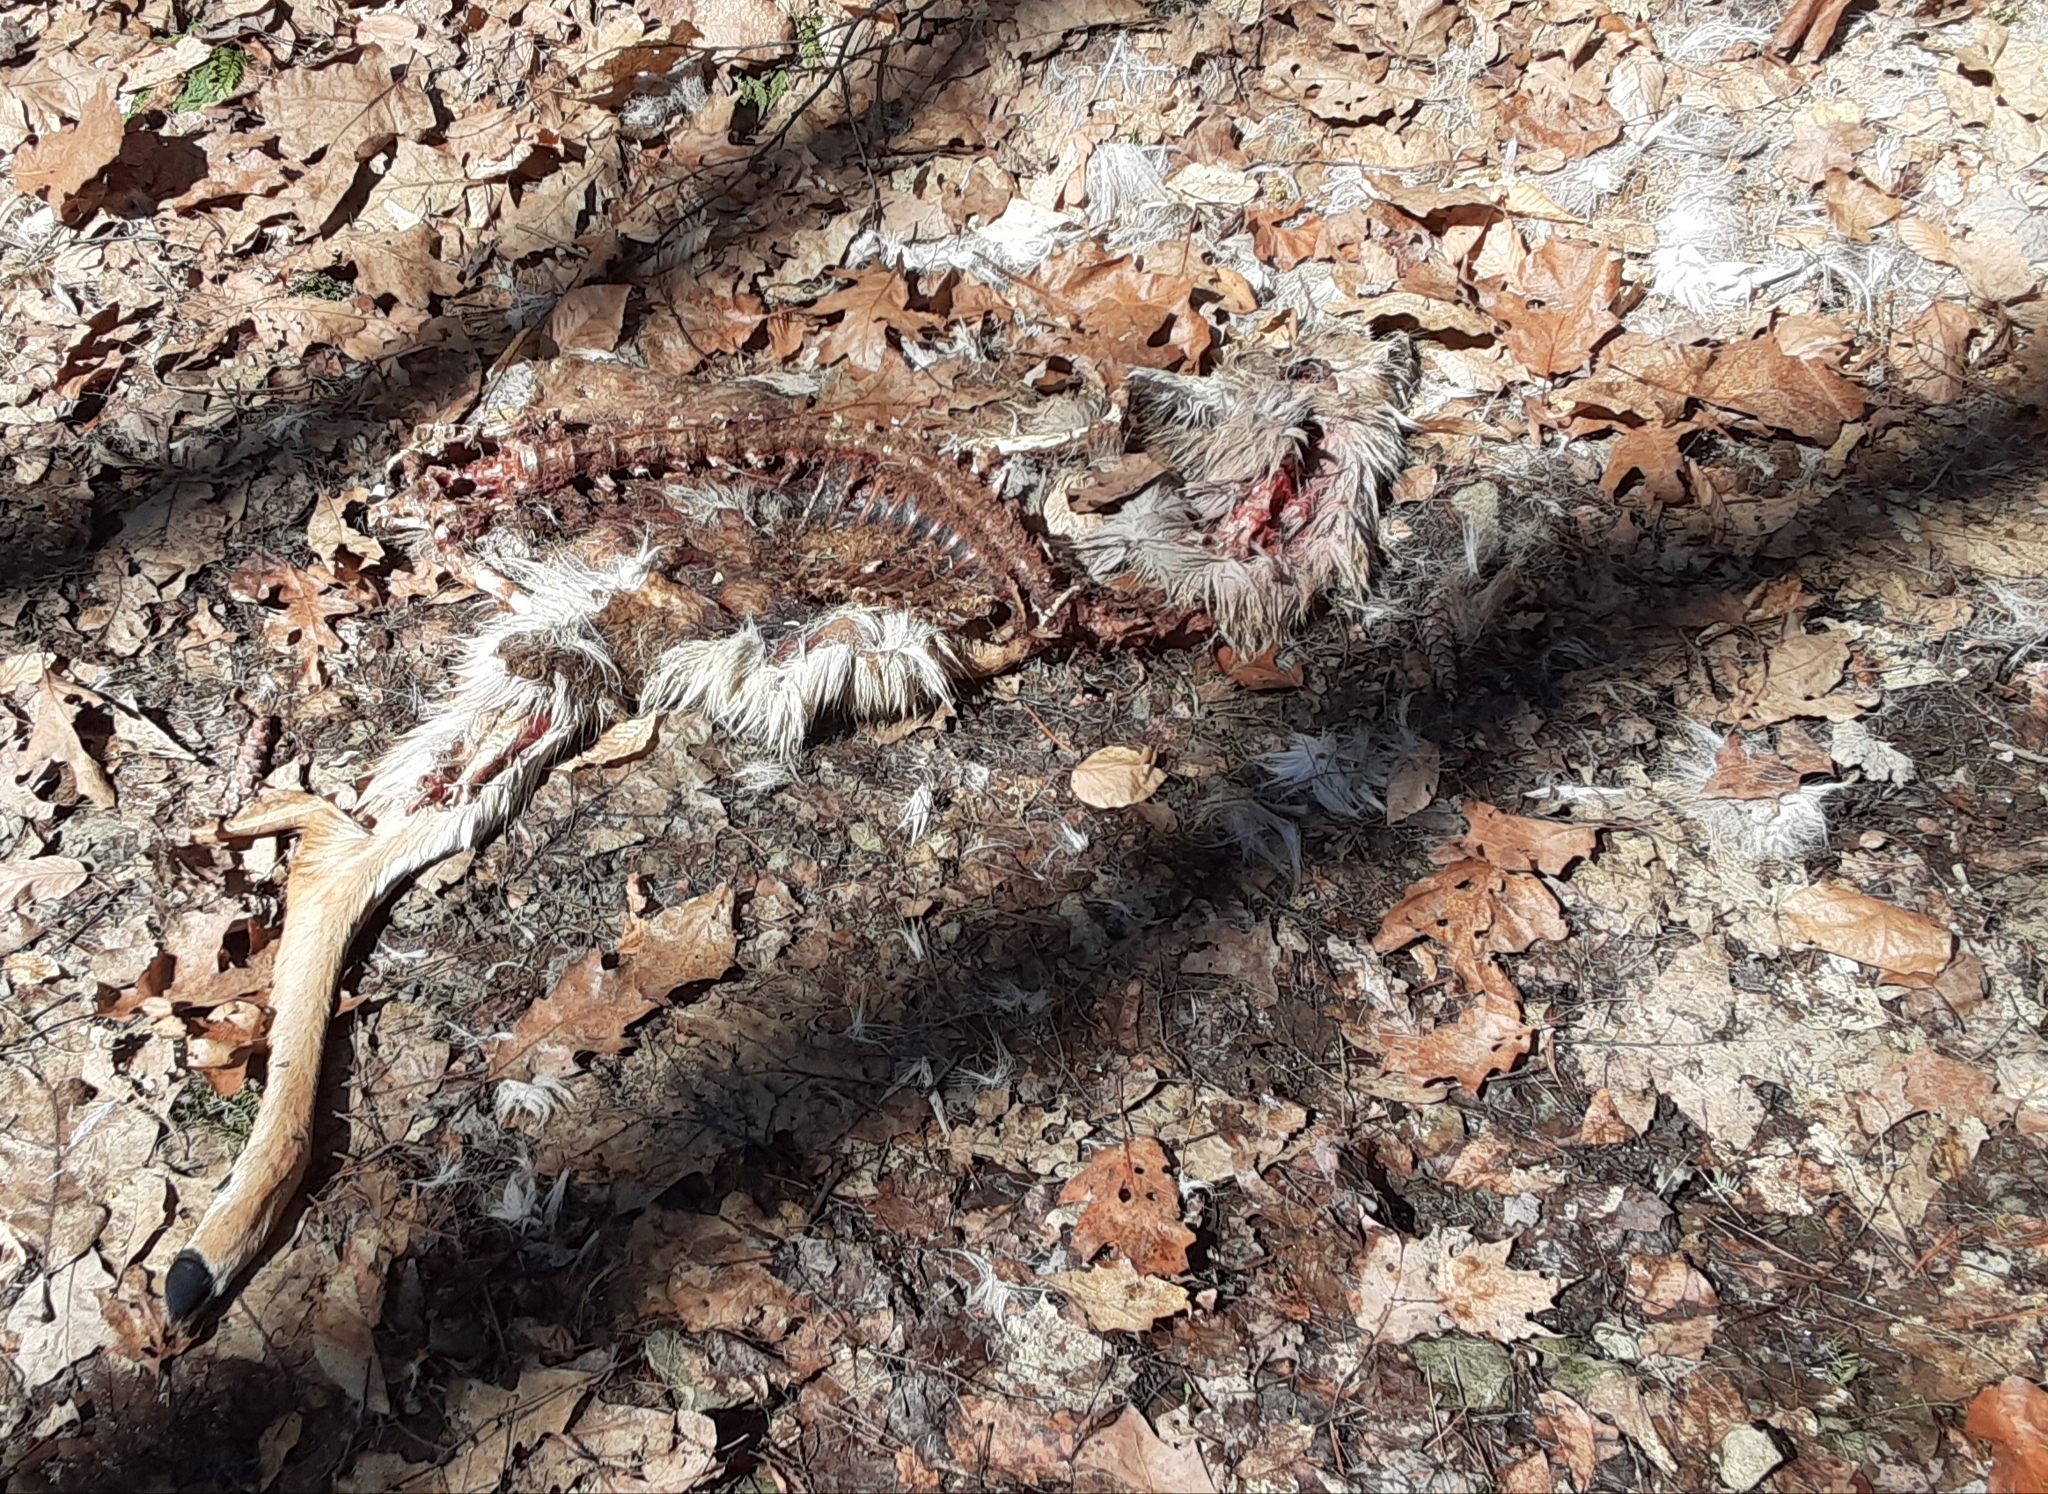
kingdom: Animalia
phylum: Chordata
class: Mammalia
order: Artiodactyla
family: Cervidae
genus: Odocoileus
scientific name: Odocoileus virginianus
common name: White-tailed deer
